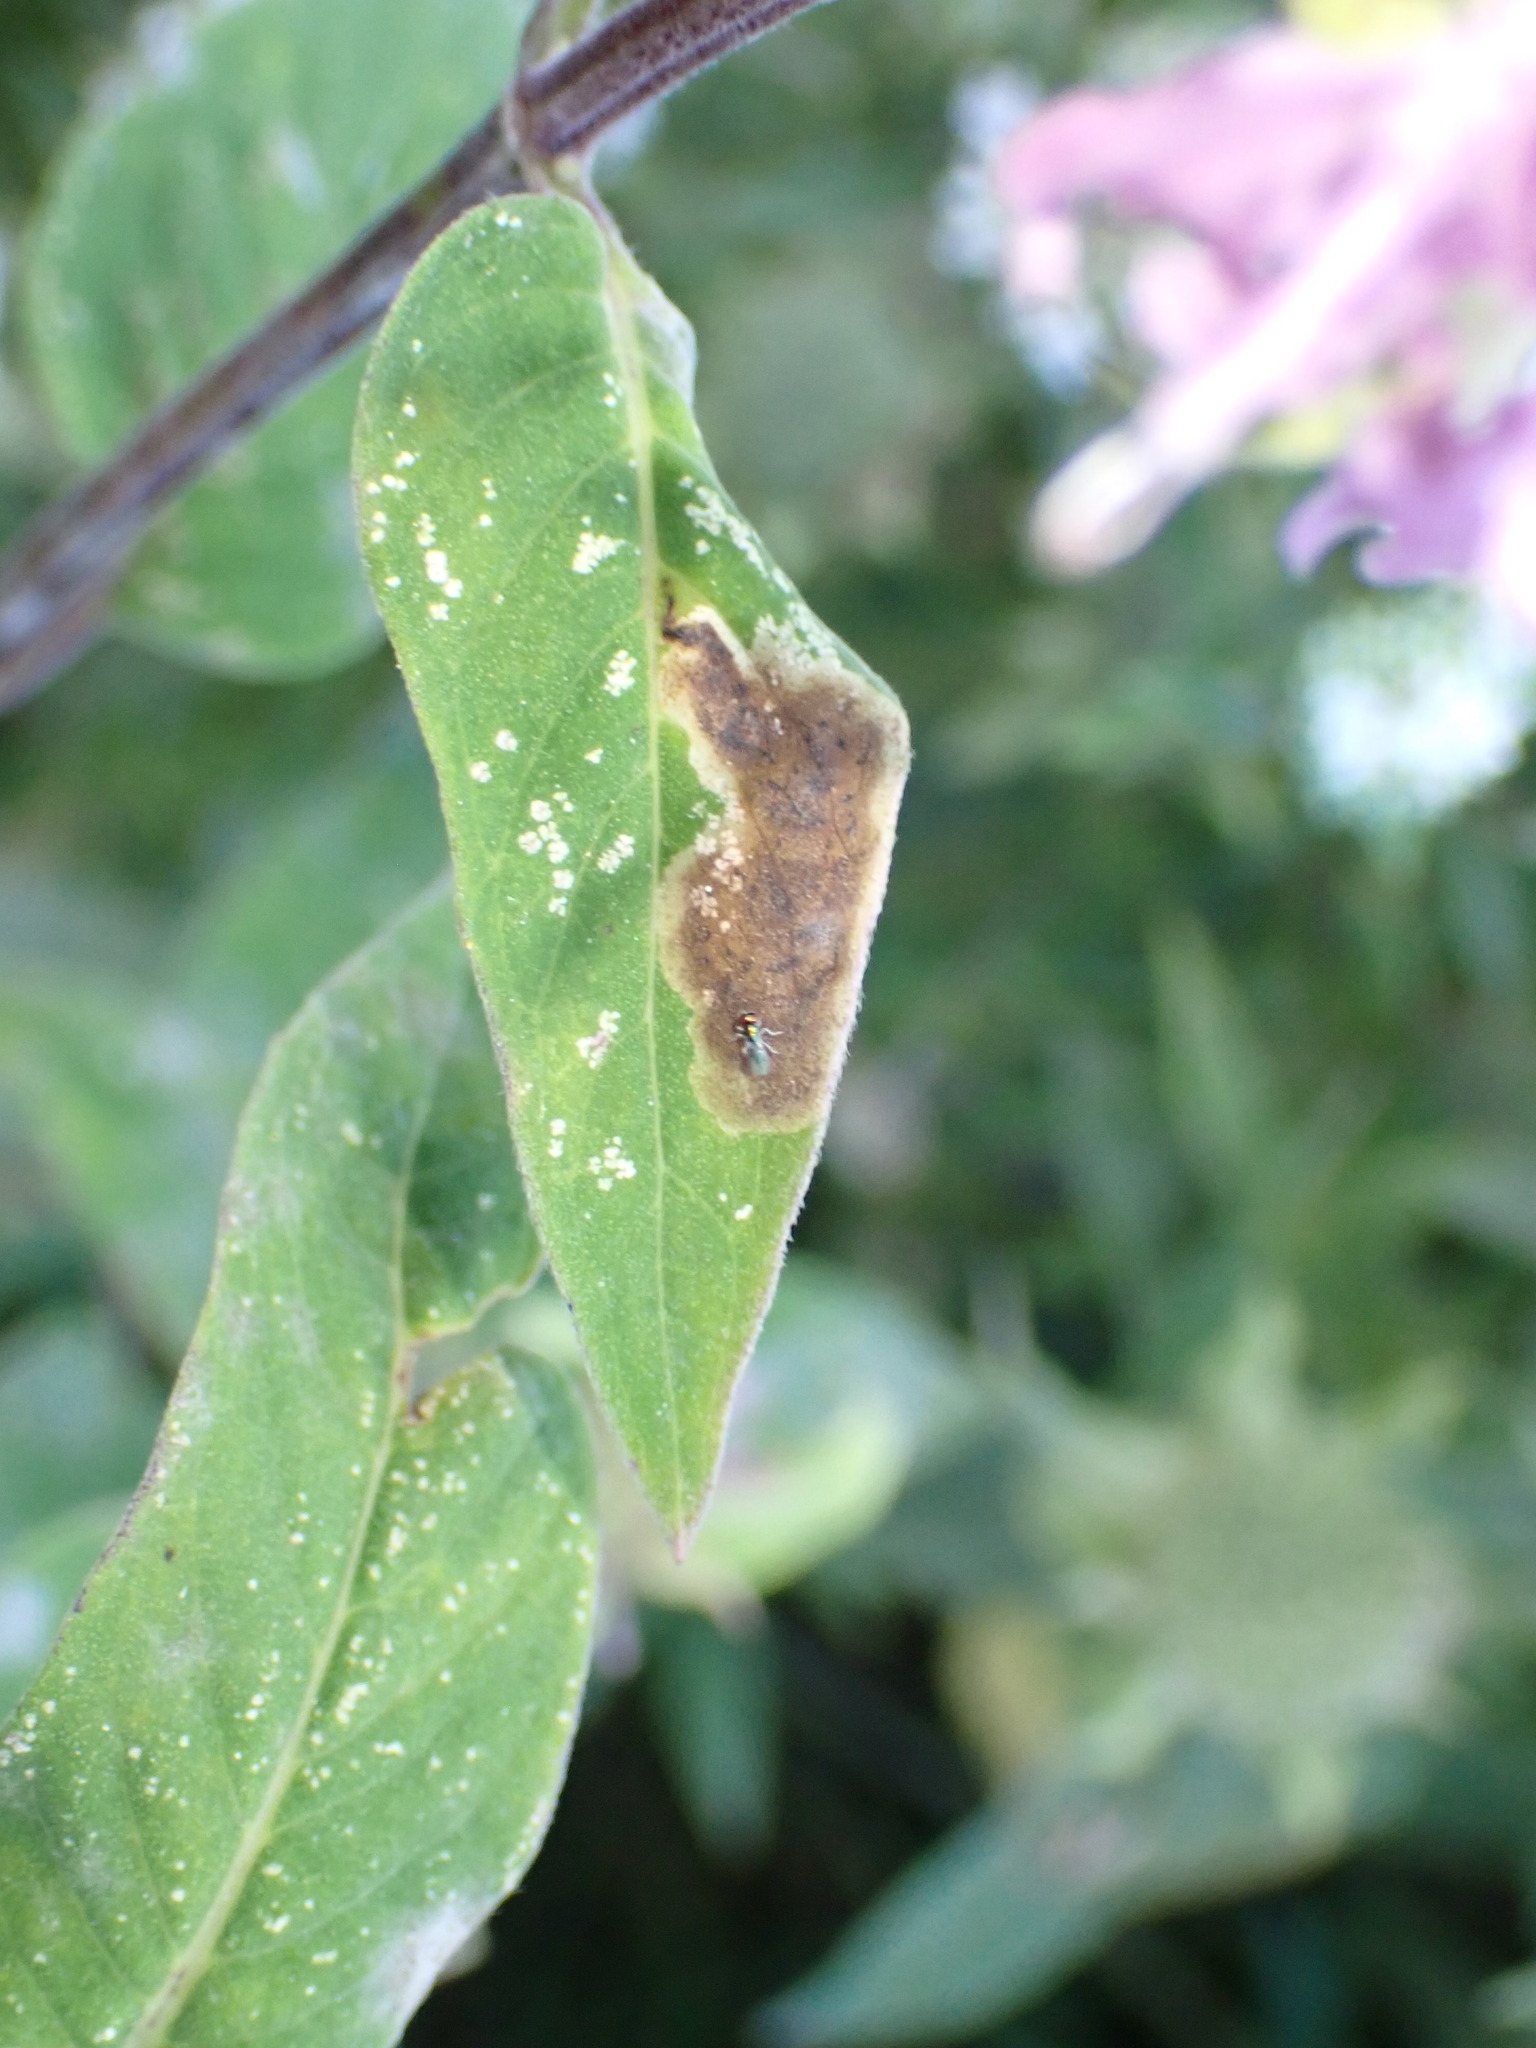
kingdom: Animalia
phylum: Arthropoda
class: Insecta
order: Diptera
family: Agromyzidae
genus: Calycomyza
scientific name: Calycomyza menthae
